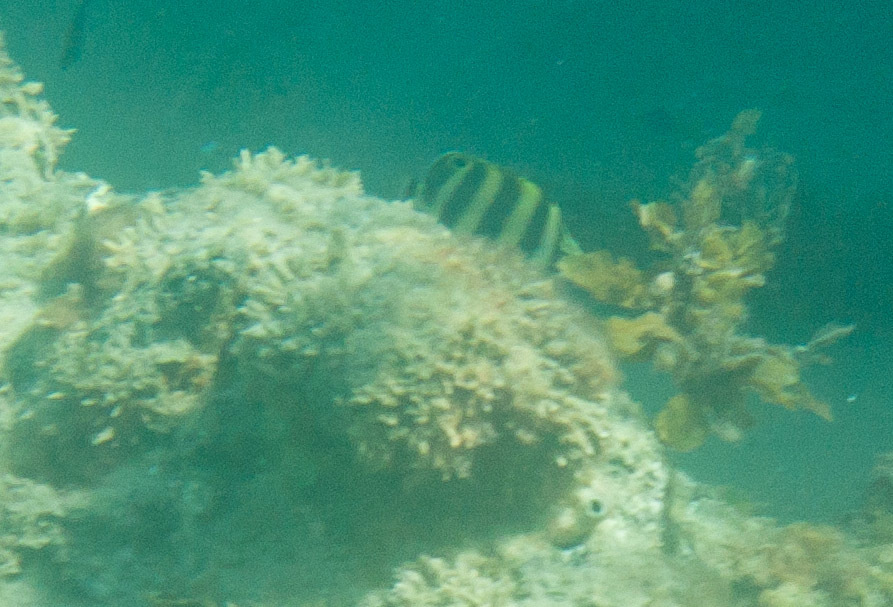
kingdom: Animalia
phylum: Chordata
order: Perciformes
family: Kyphosidae
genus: Tilodon
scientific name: Tilodon sexfasciatus
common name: Moonlighter
